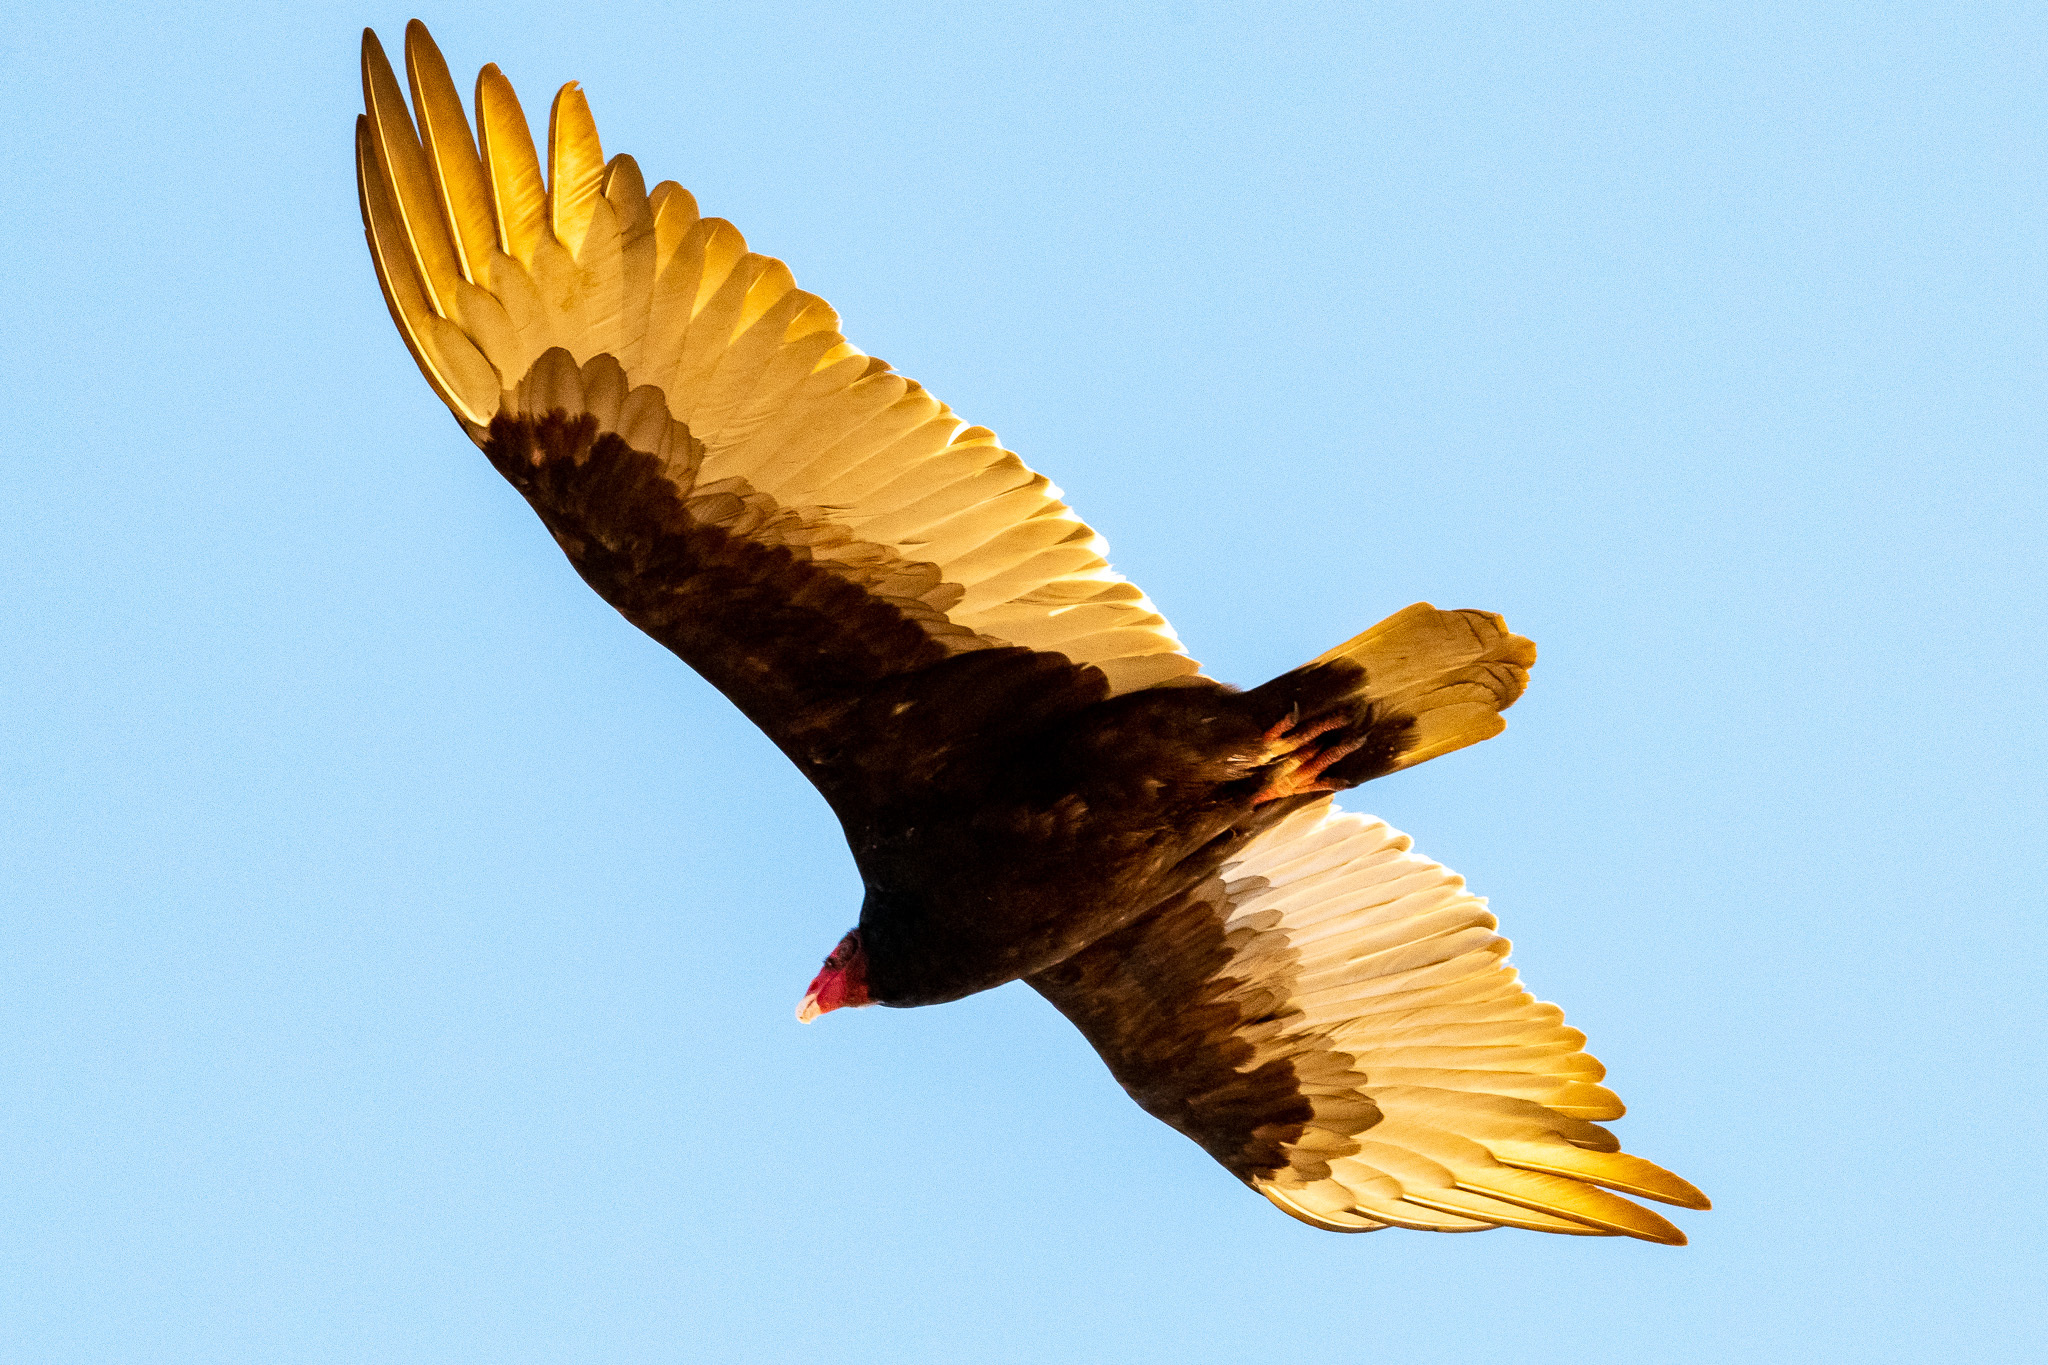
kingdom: Animalia
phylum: Chordata
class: Aves
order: Accipitriformes
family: Cathartidae
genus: Cathartes
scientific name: Cathartes aura
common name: Turkey vulture
